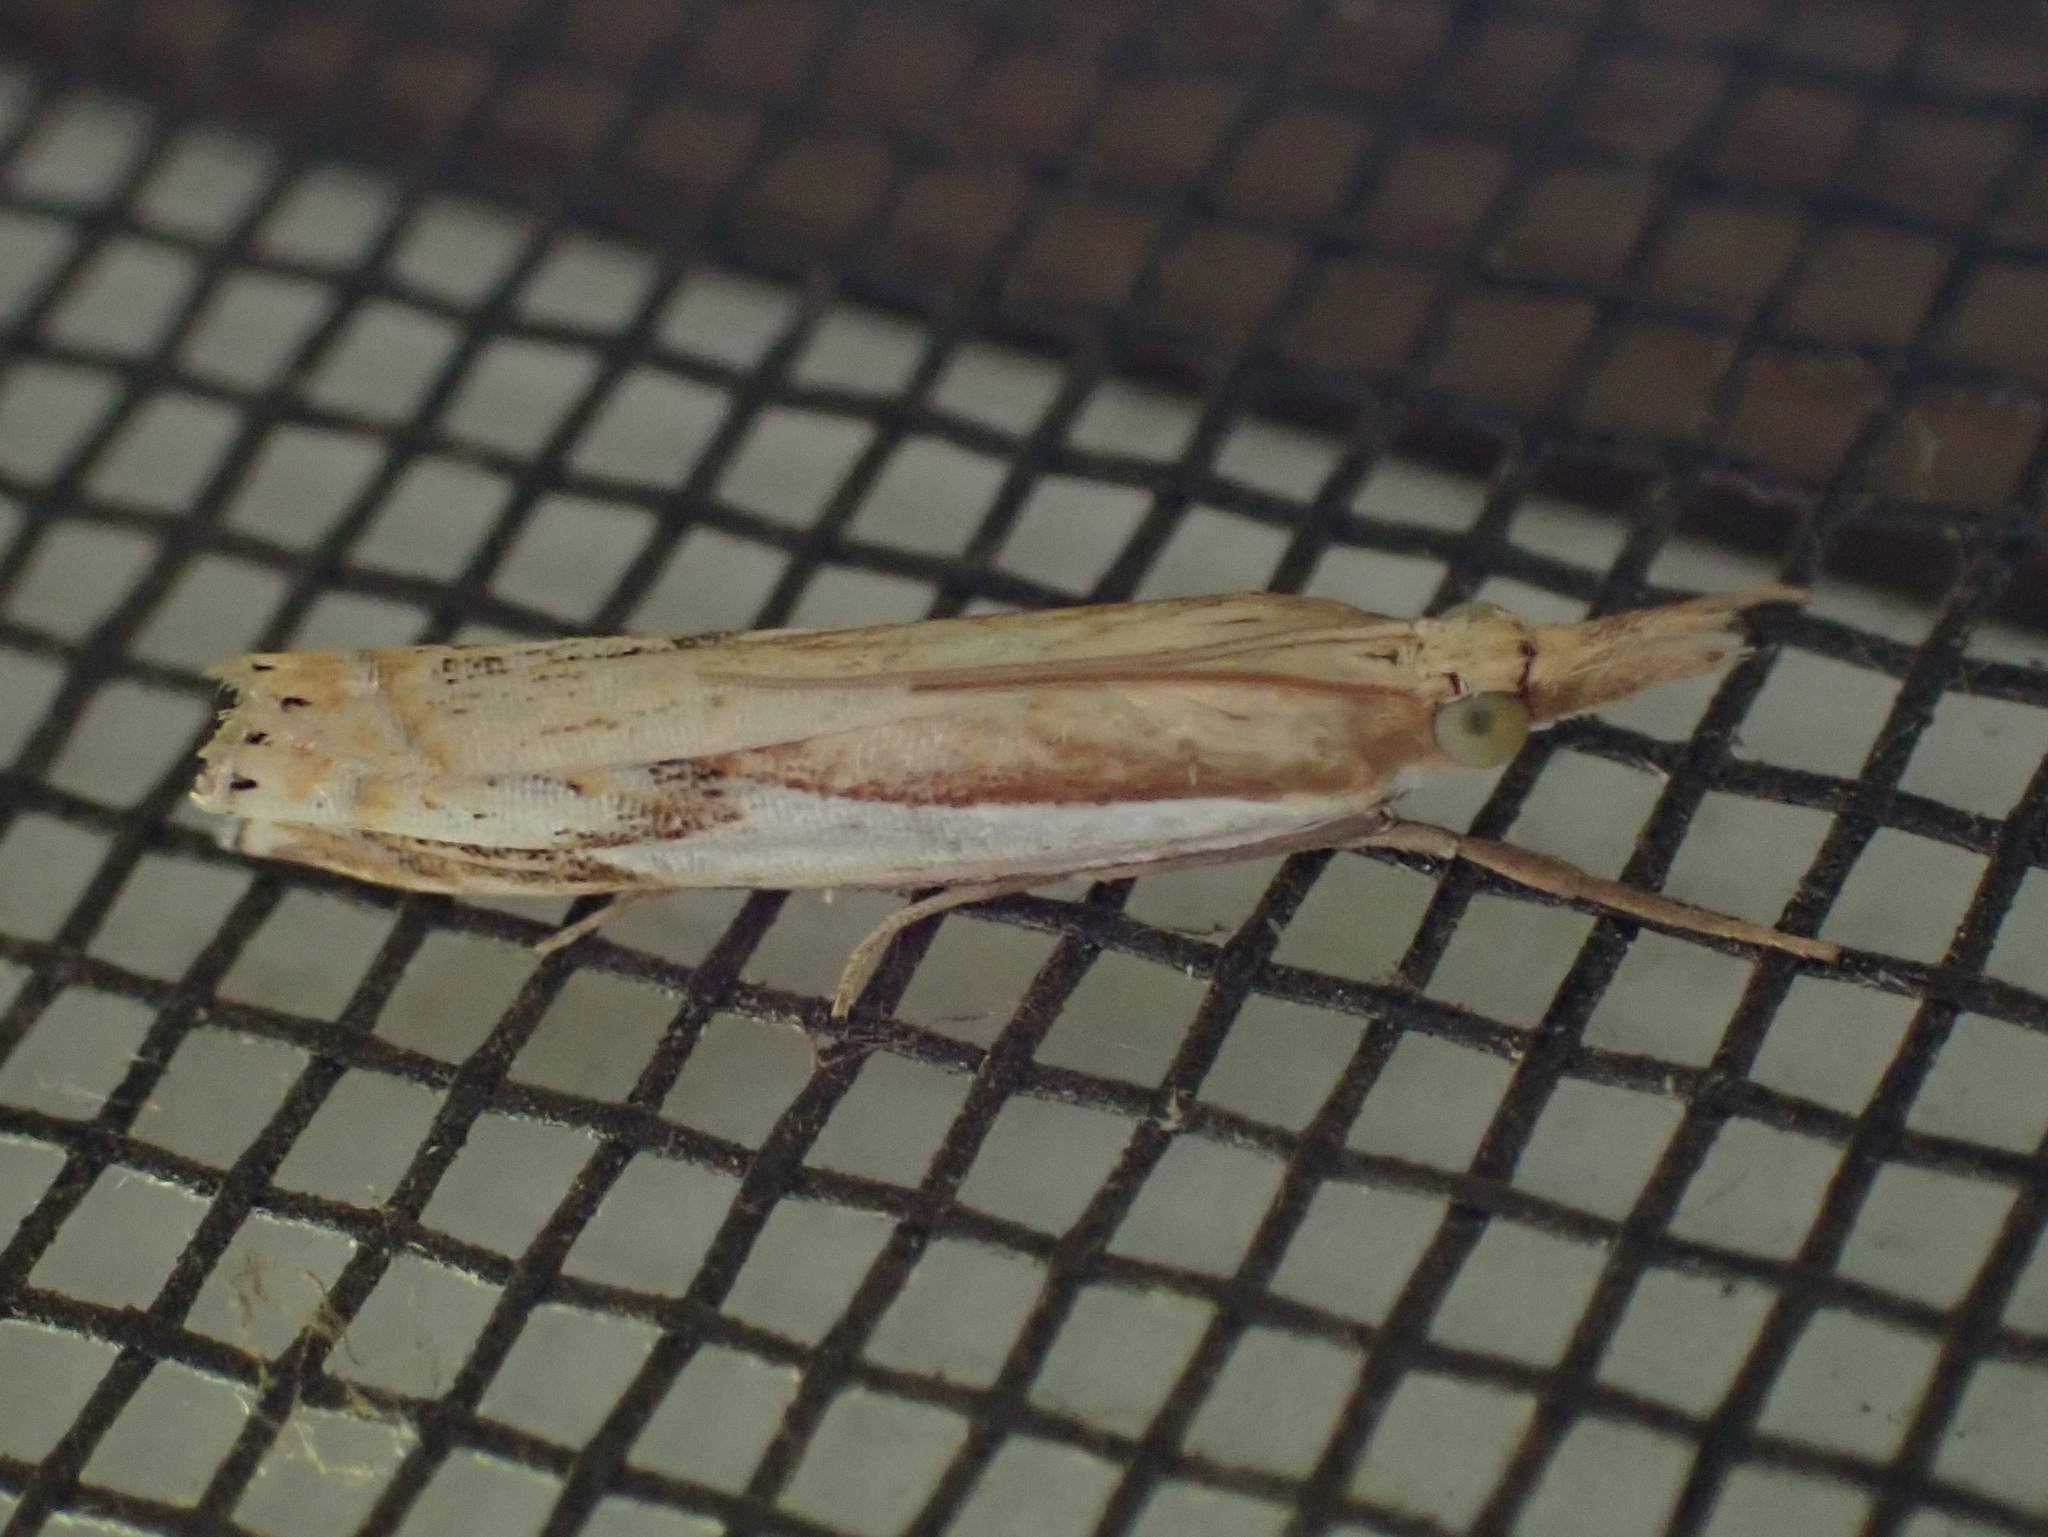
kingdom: Animalia
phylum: Arthropoda
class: Insecta
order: Lepidoptera
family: Crambidae
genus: Crambus
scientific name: Crambus agitatellus
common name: Double-banded grass-veneer
